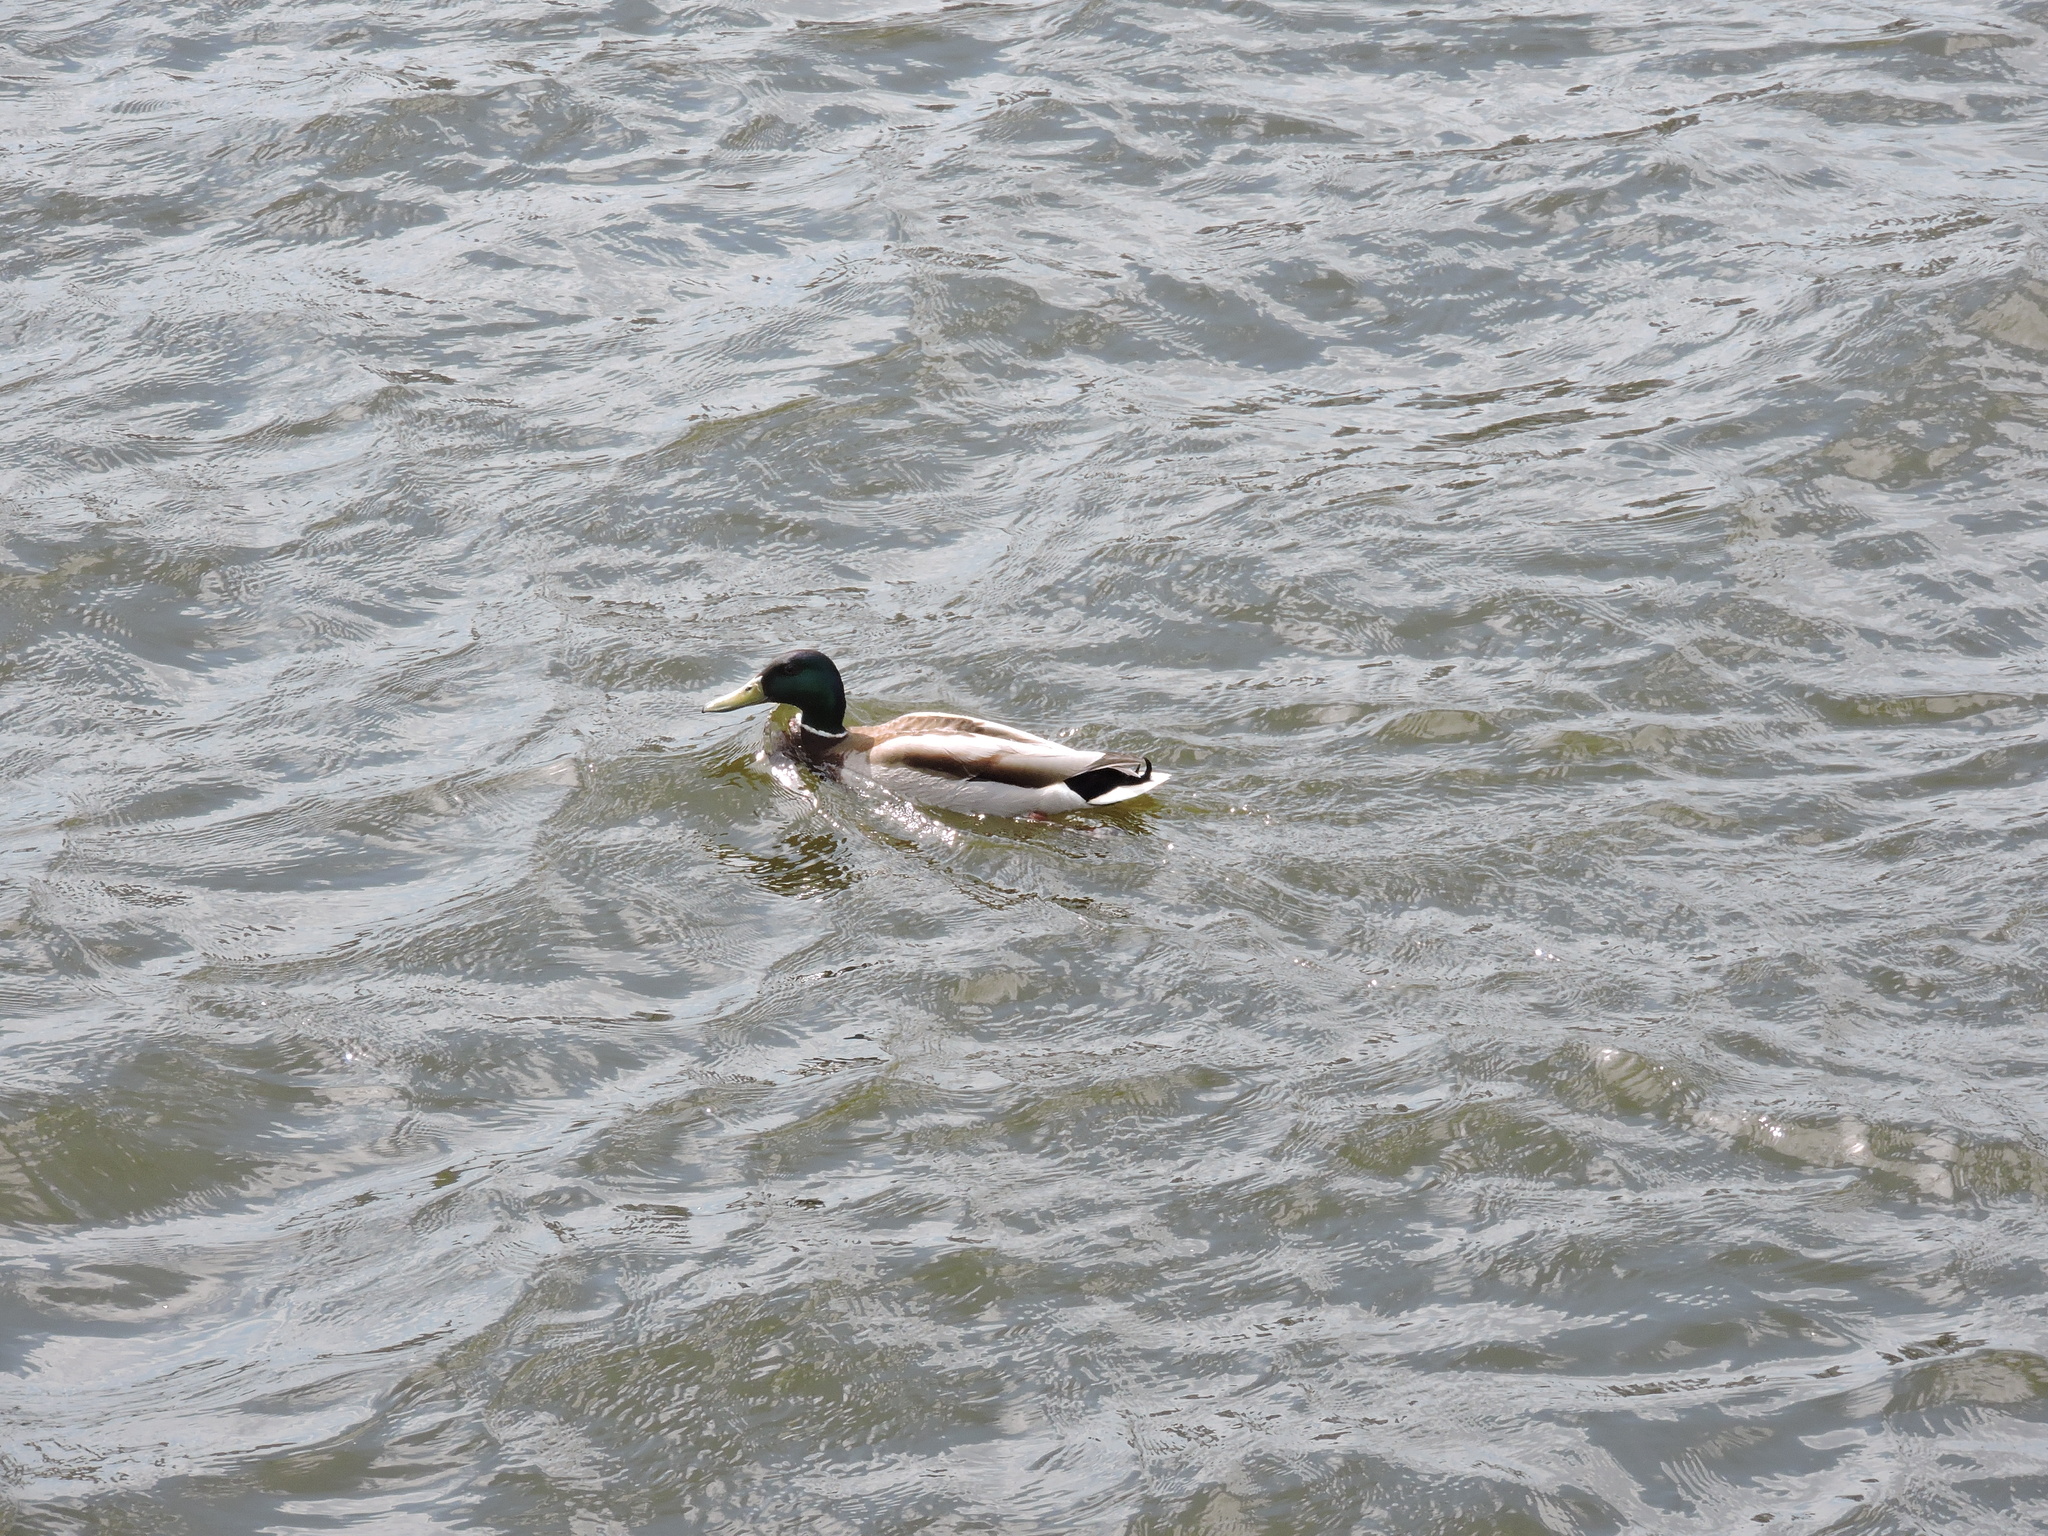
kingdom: Animalia
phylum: Chordata
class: Aves
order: Anseriformes
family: Anatidae
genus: Anas
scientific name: Anas platyrhynchos
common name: Mallard
